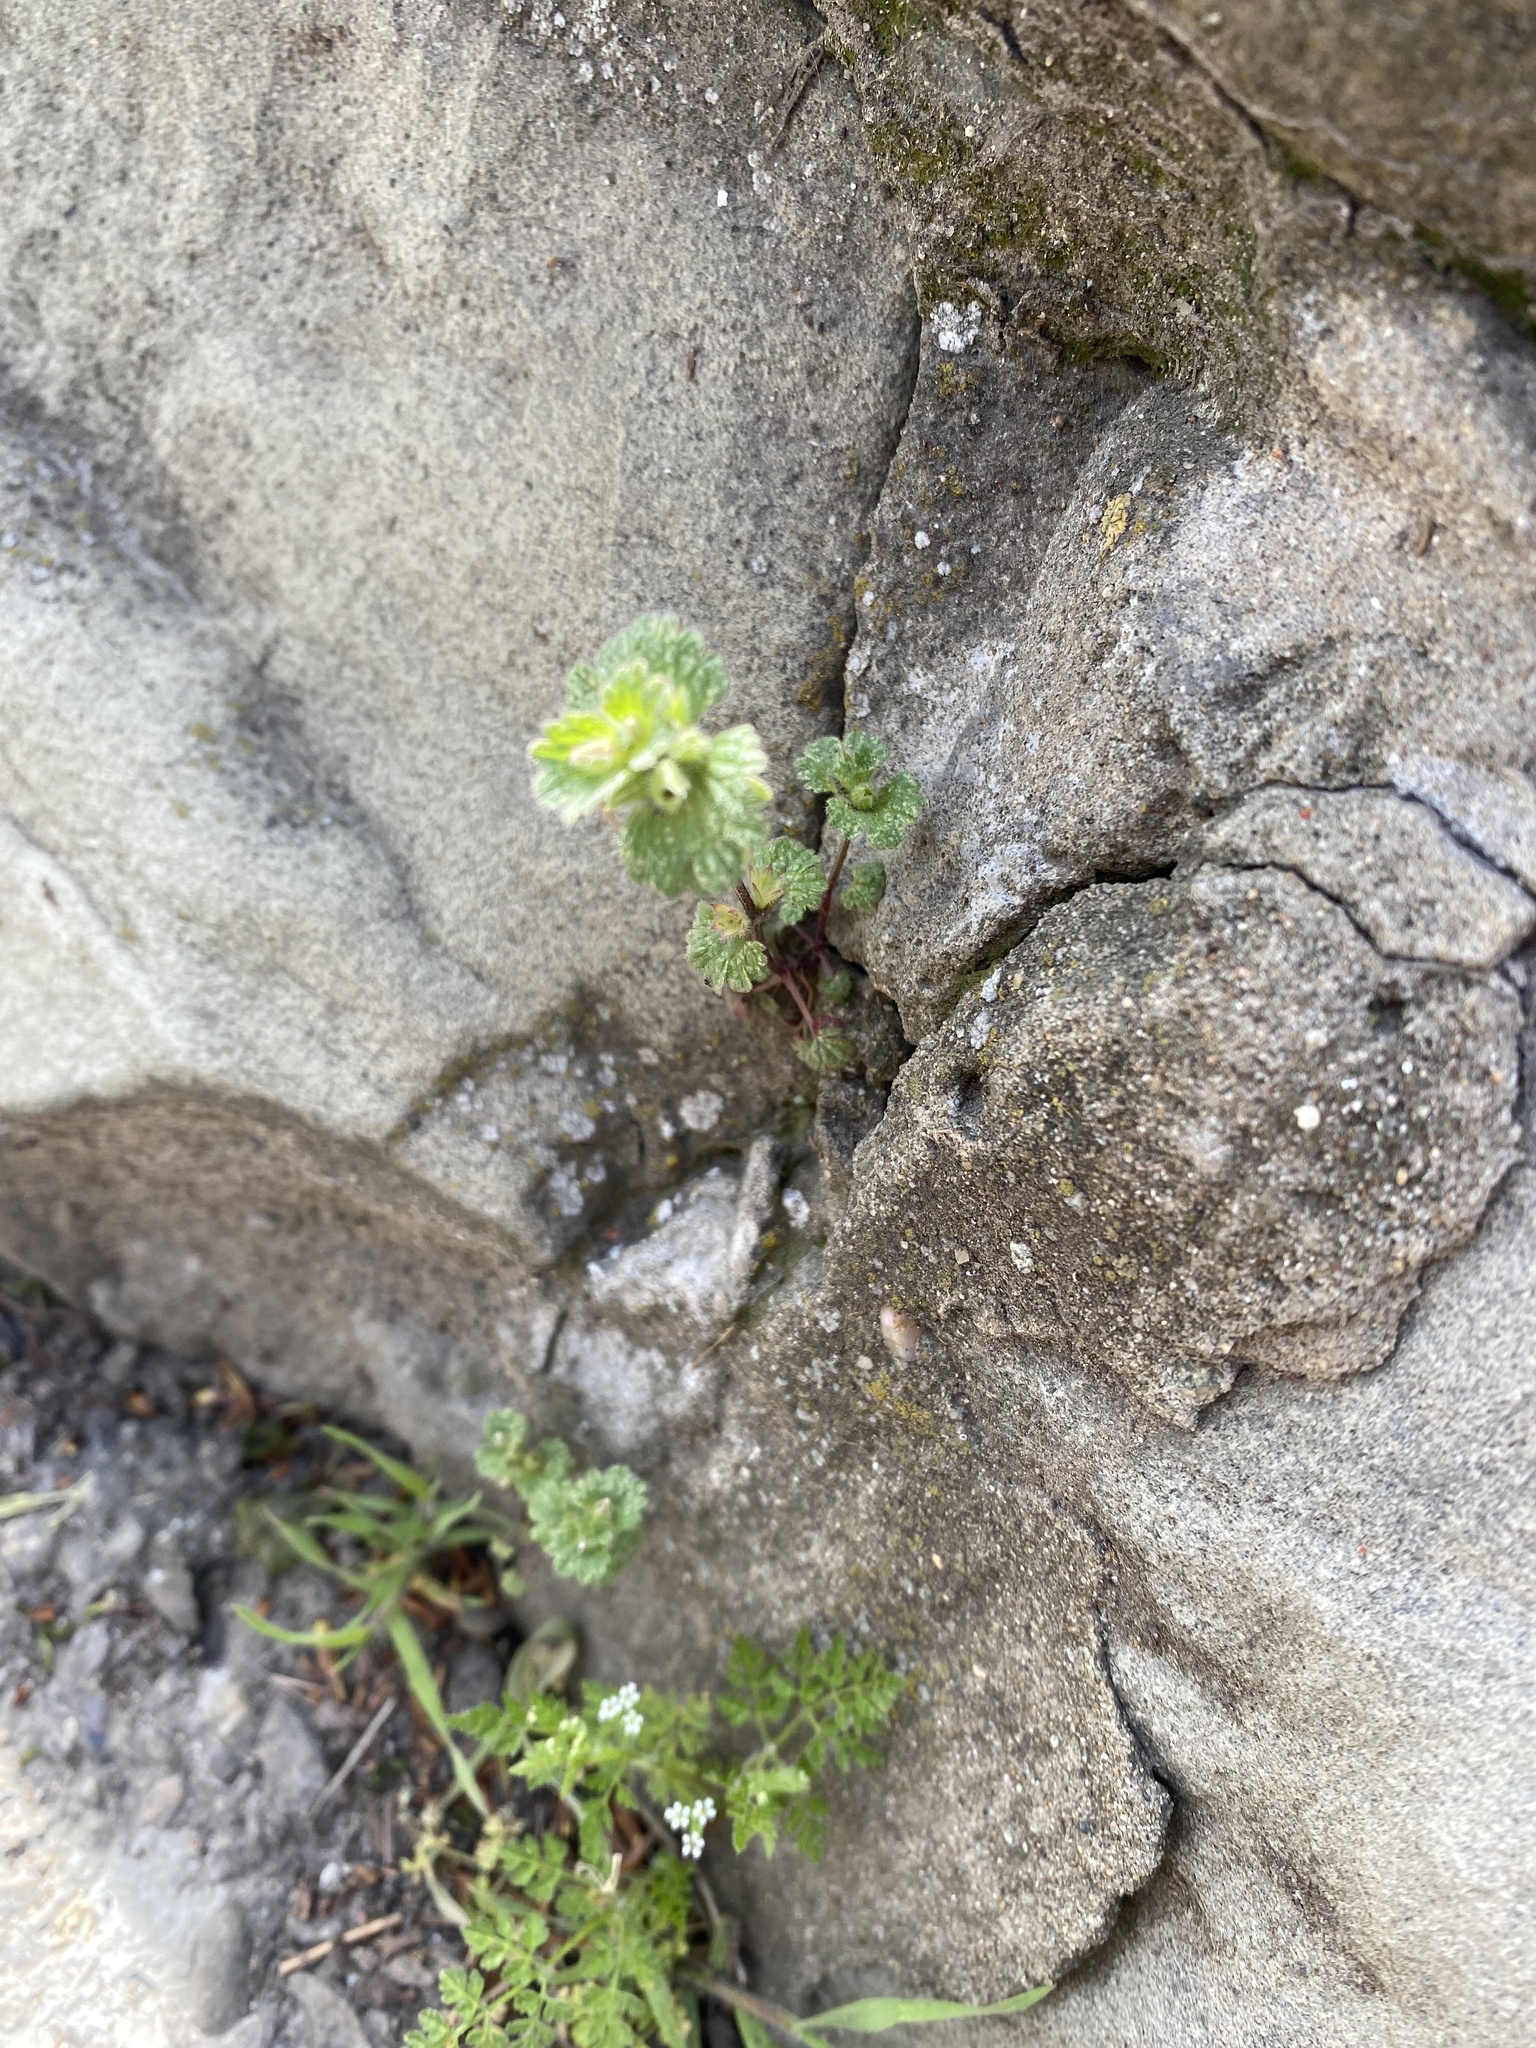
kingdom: Plantae
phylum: Tracheophyta
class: Magnoliopsida
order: Lamiales
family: Lamiaceae
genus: Lamium
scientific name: Lamium amplexicaule
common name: Henbit dead-nettle
